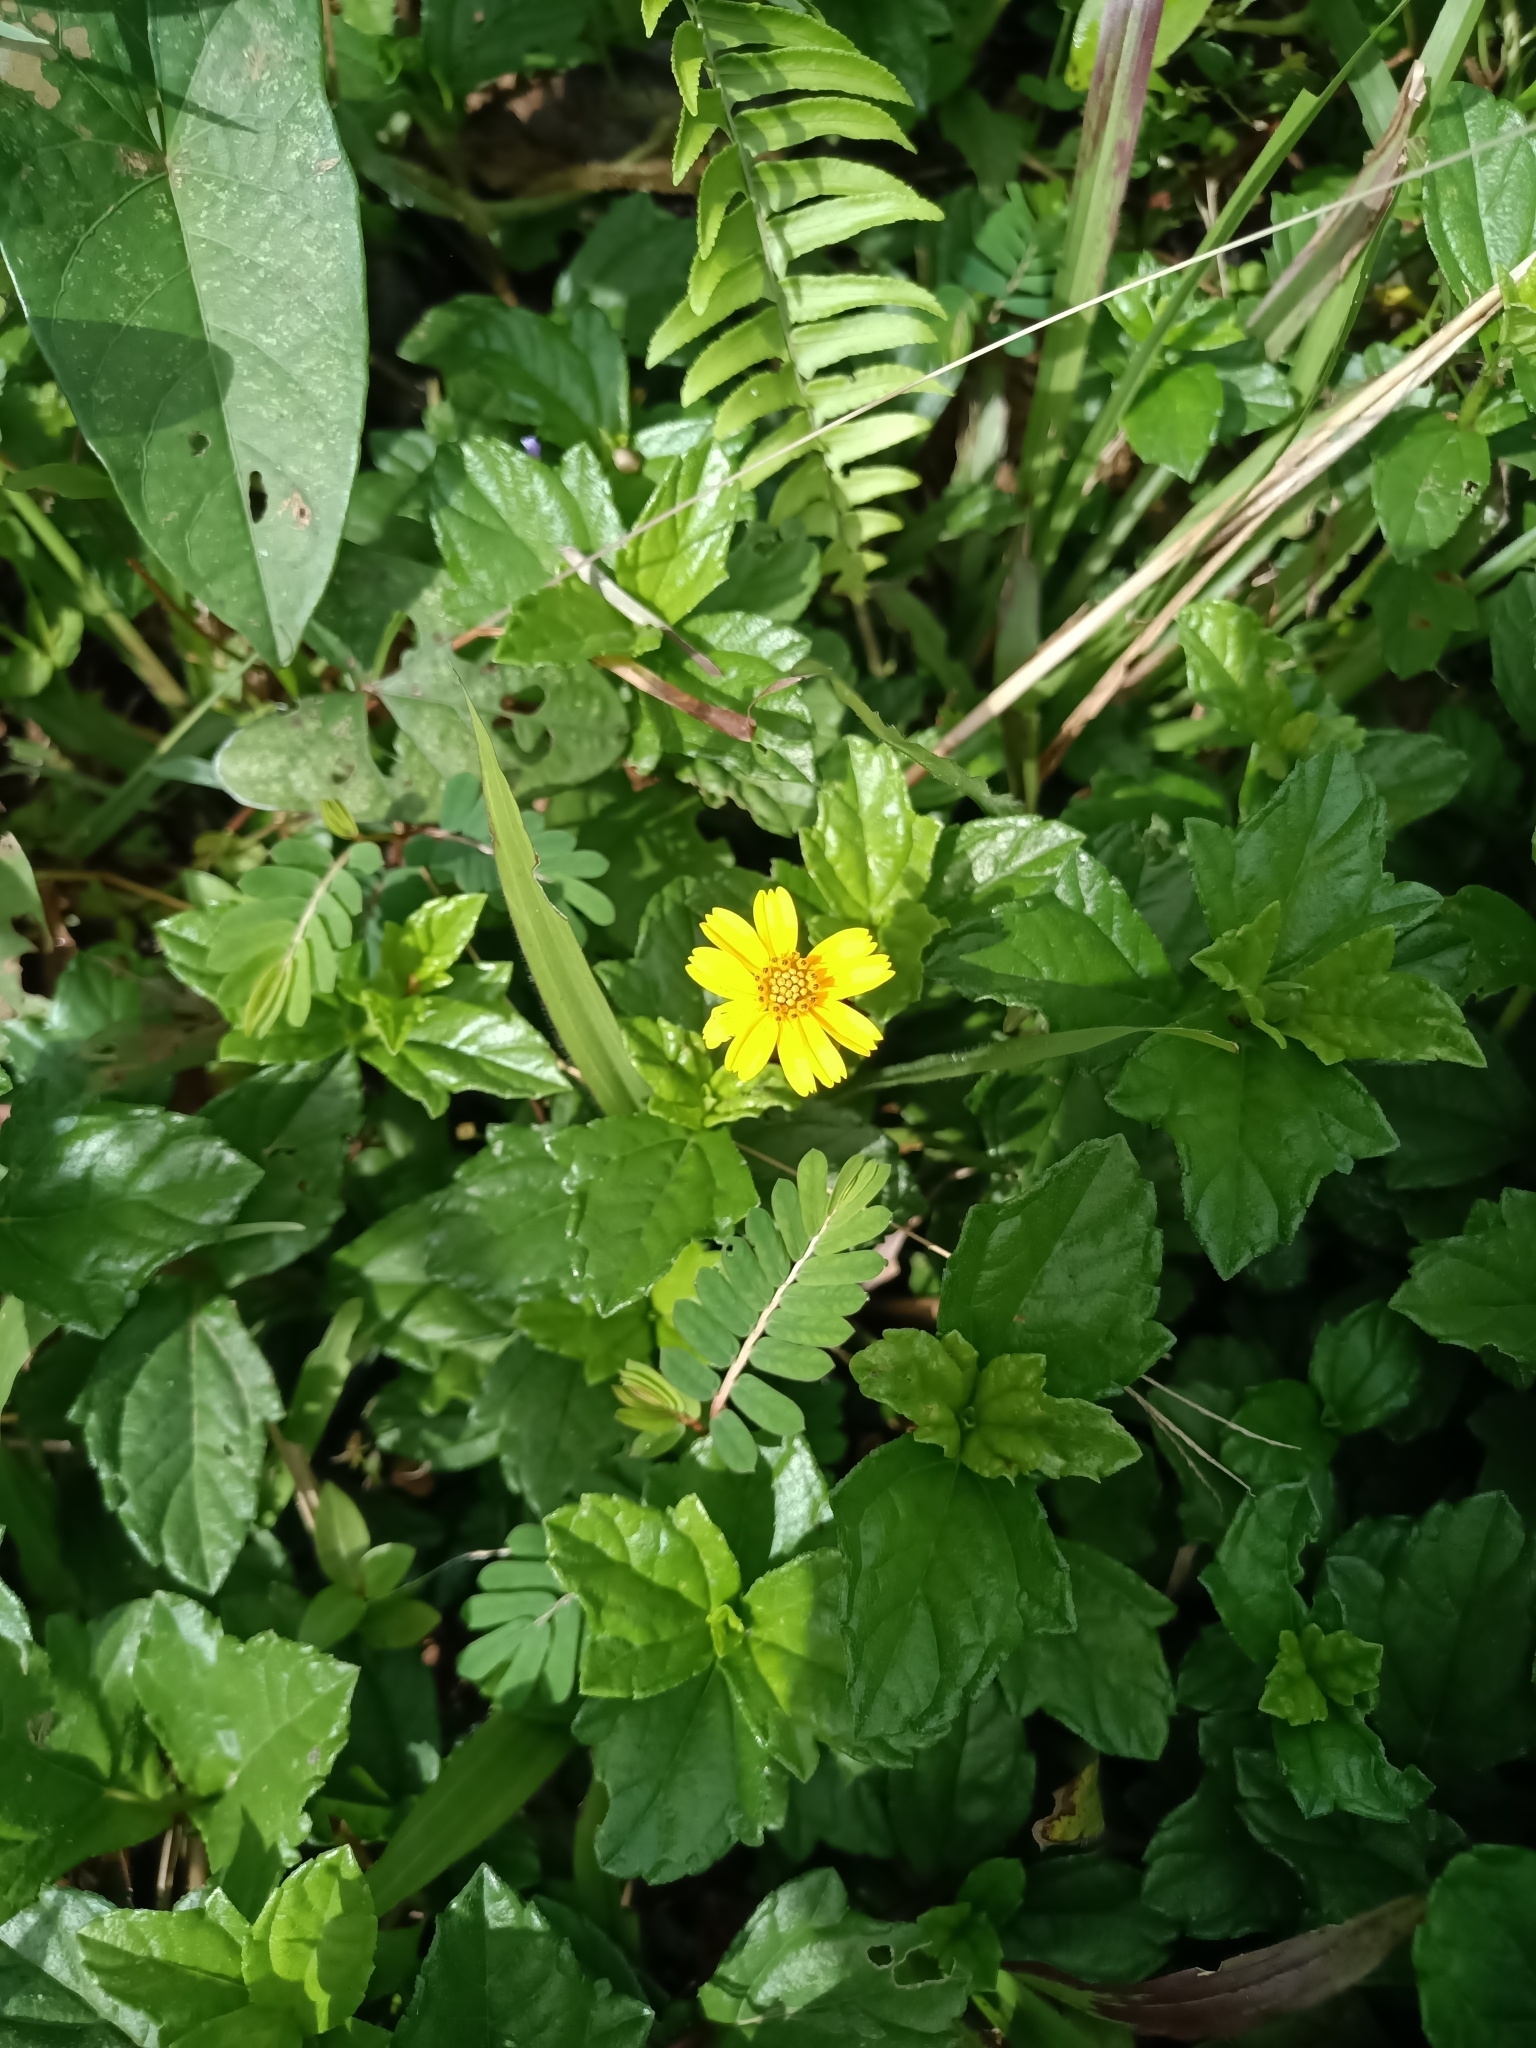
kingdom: Plantae
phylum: Tracheophyta
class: Magnoliopsida
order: Asterales
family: Asteraceae
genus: Sphagneticola
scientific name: Sphagneticola trilobata
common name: Bay biscayne creeping-oxeye
